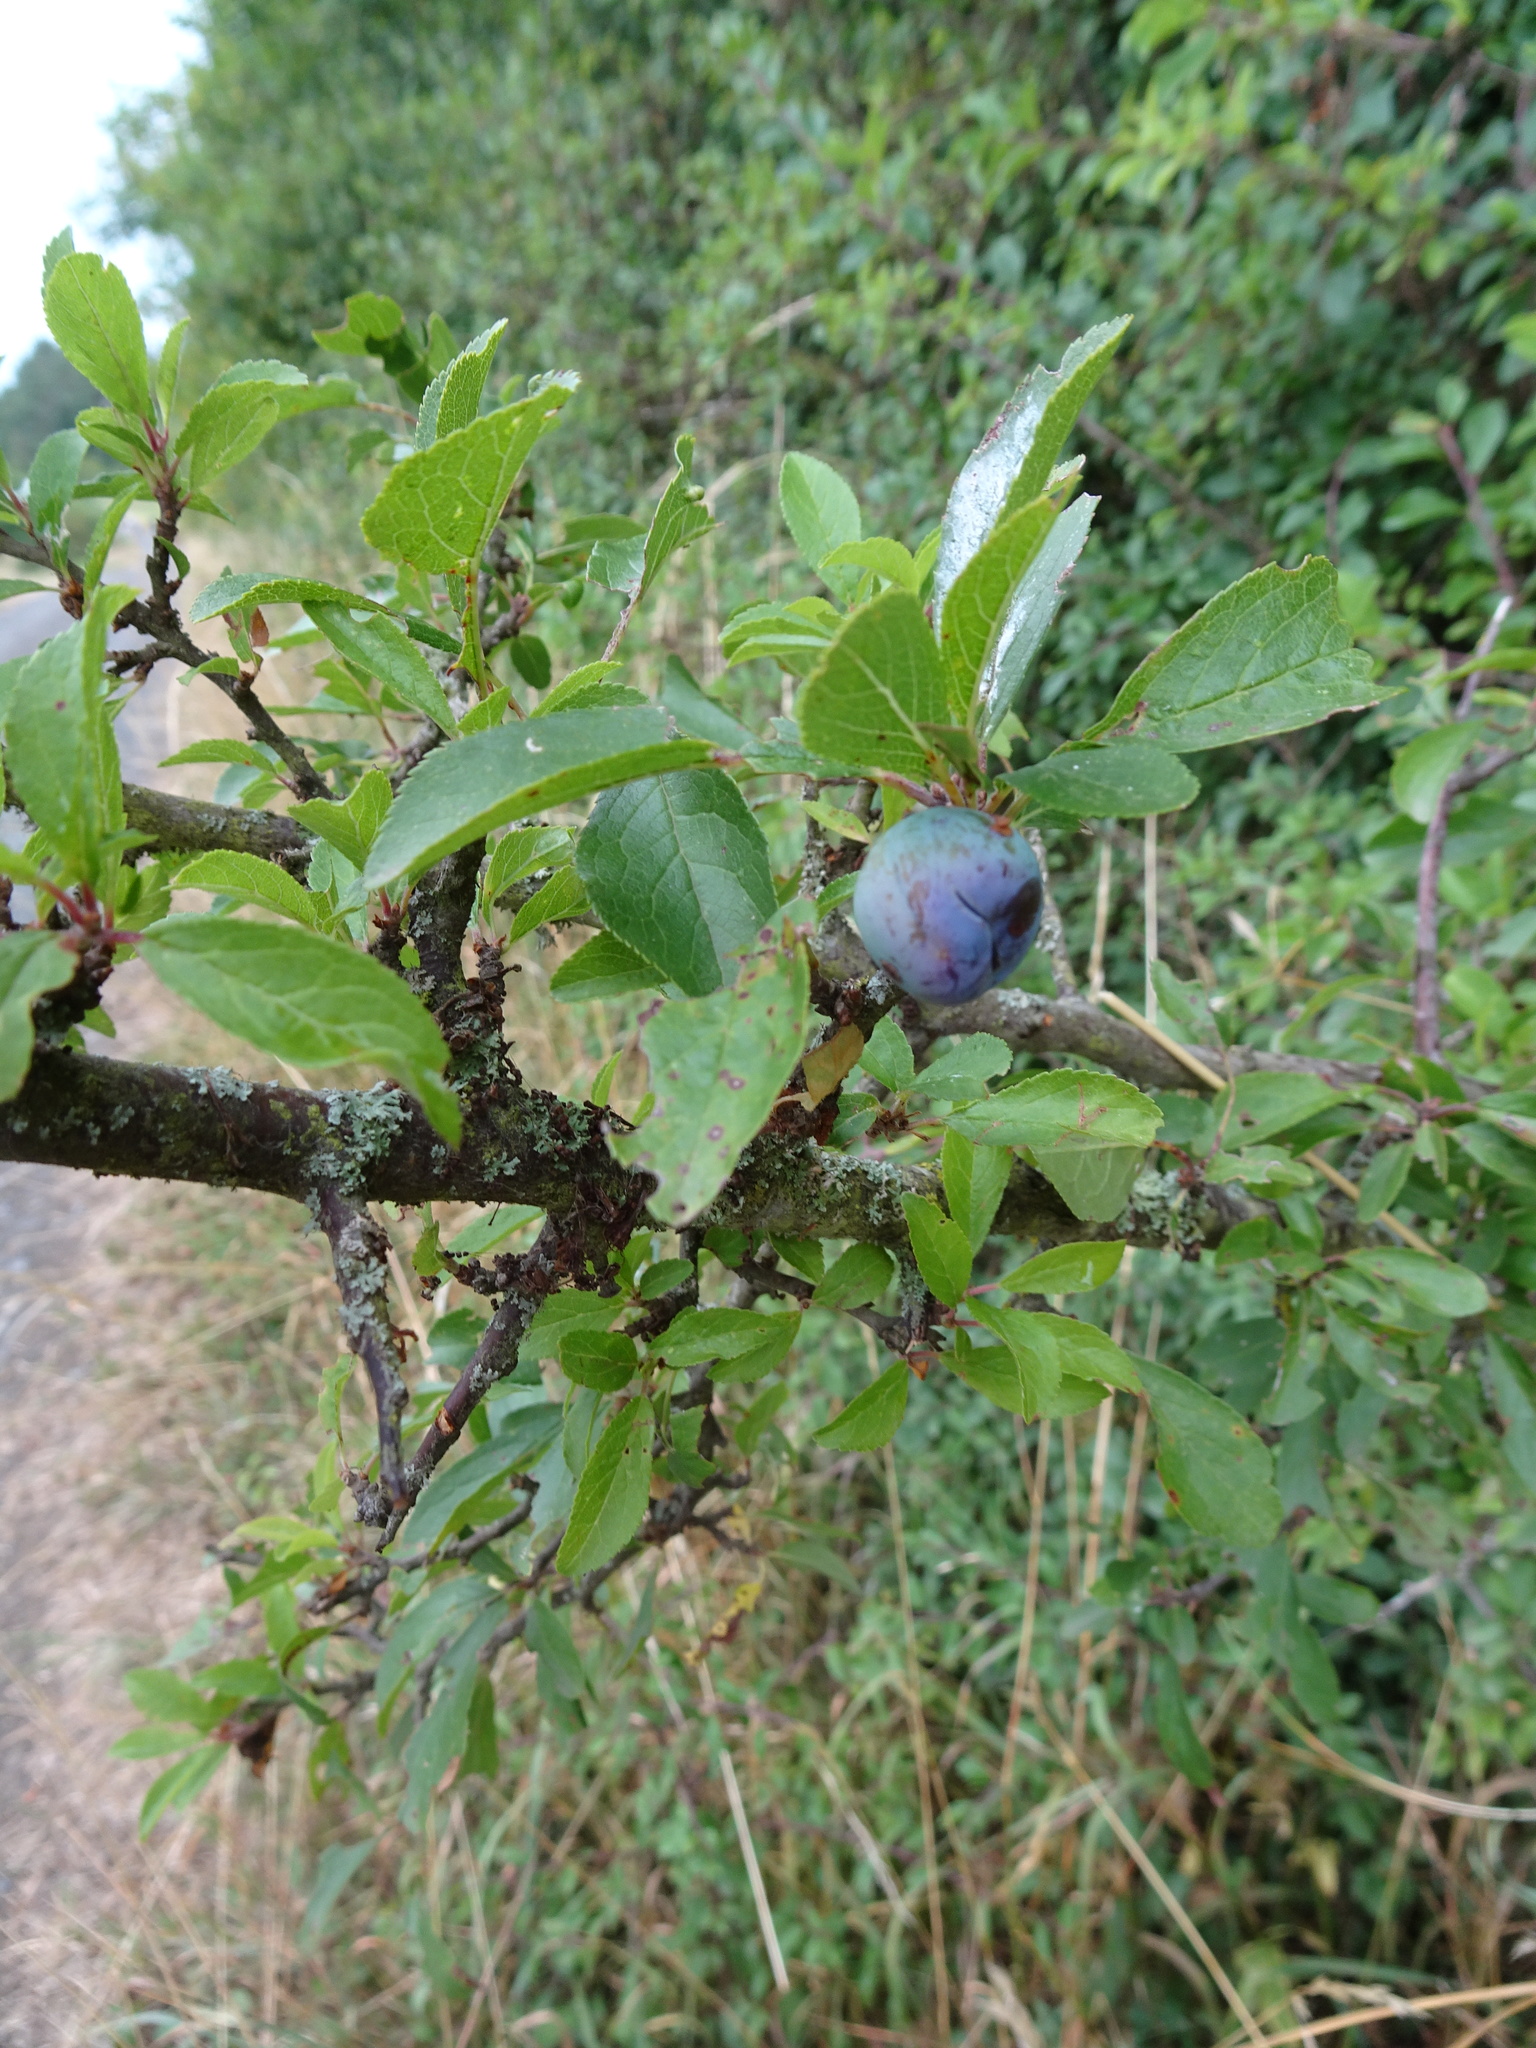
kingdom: Plantae
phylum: Tracheophyta
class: Magnoliopsida
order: Rosales
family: Rosaceae
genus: Prunus
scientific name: Prunus spinosa
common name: Blackthorn
